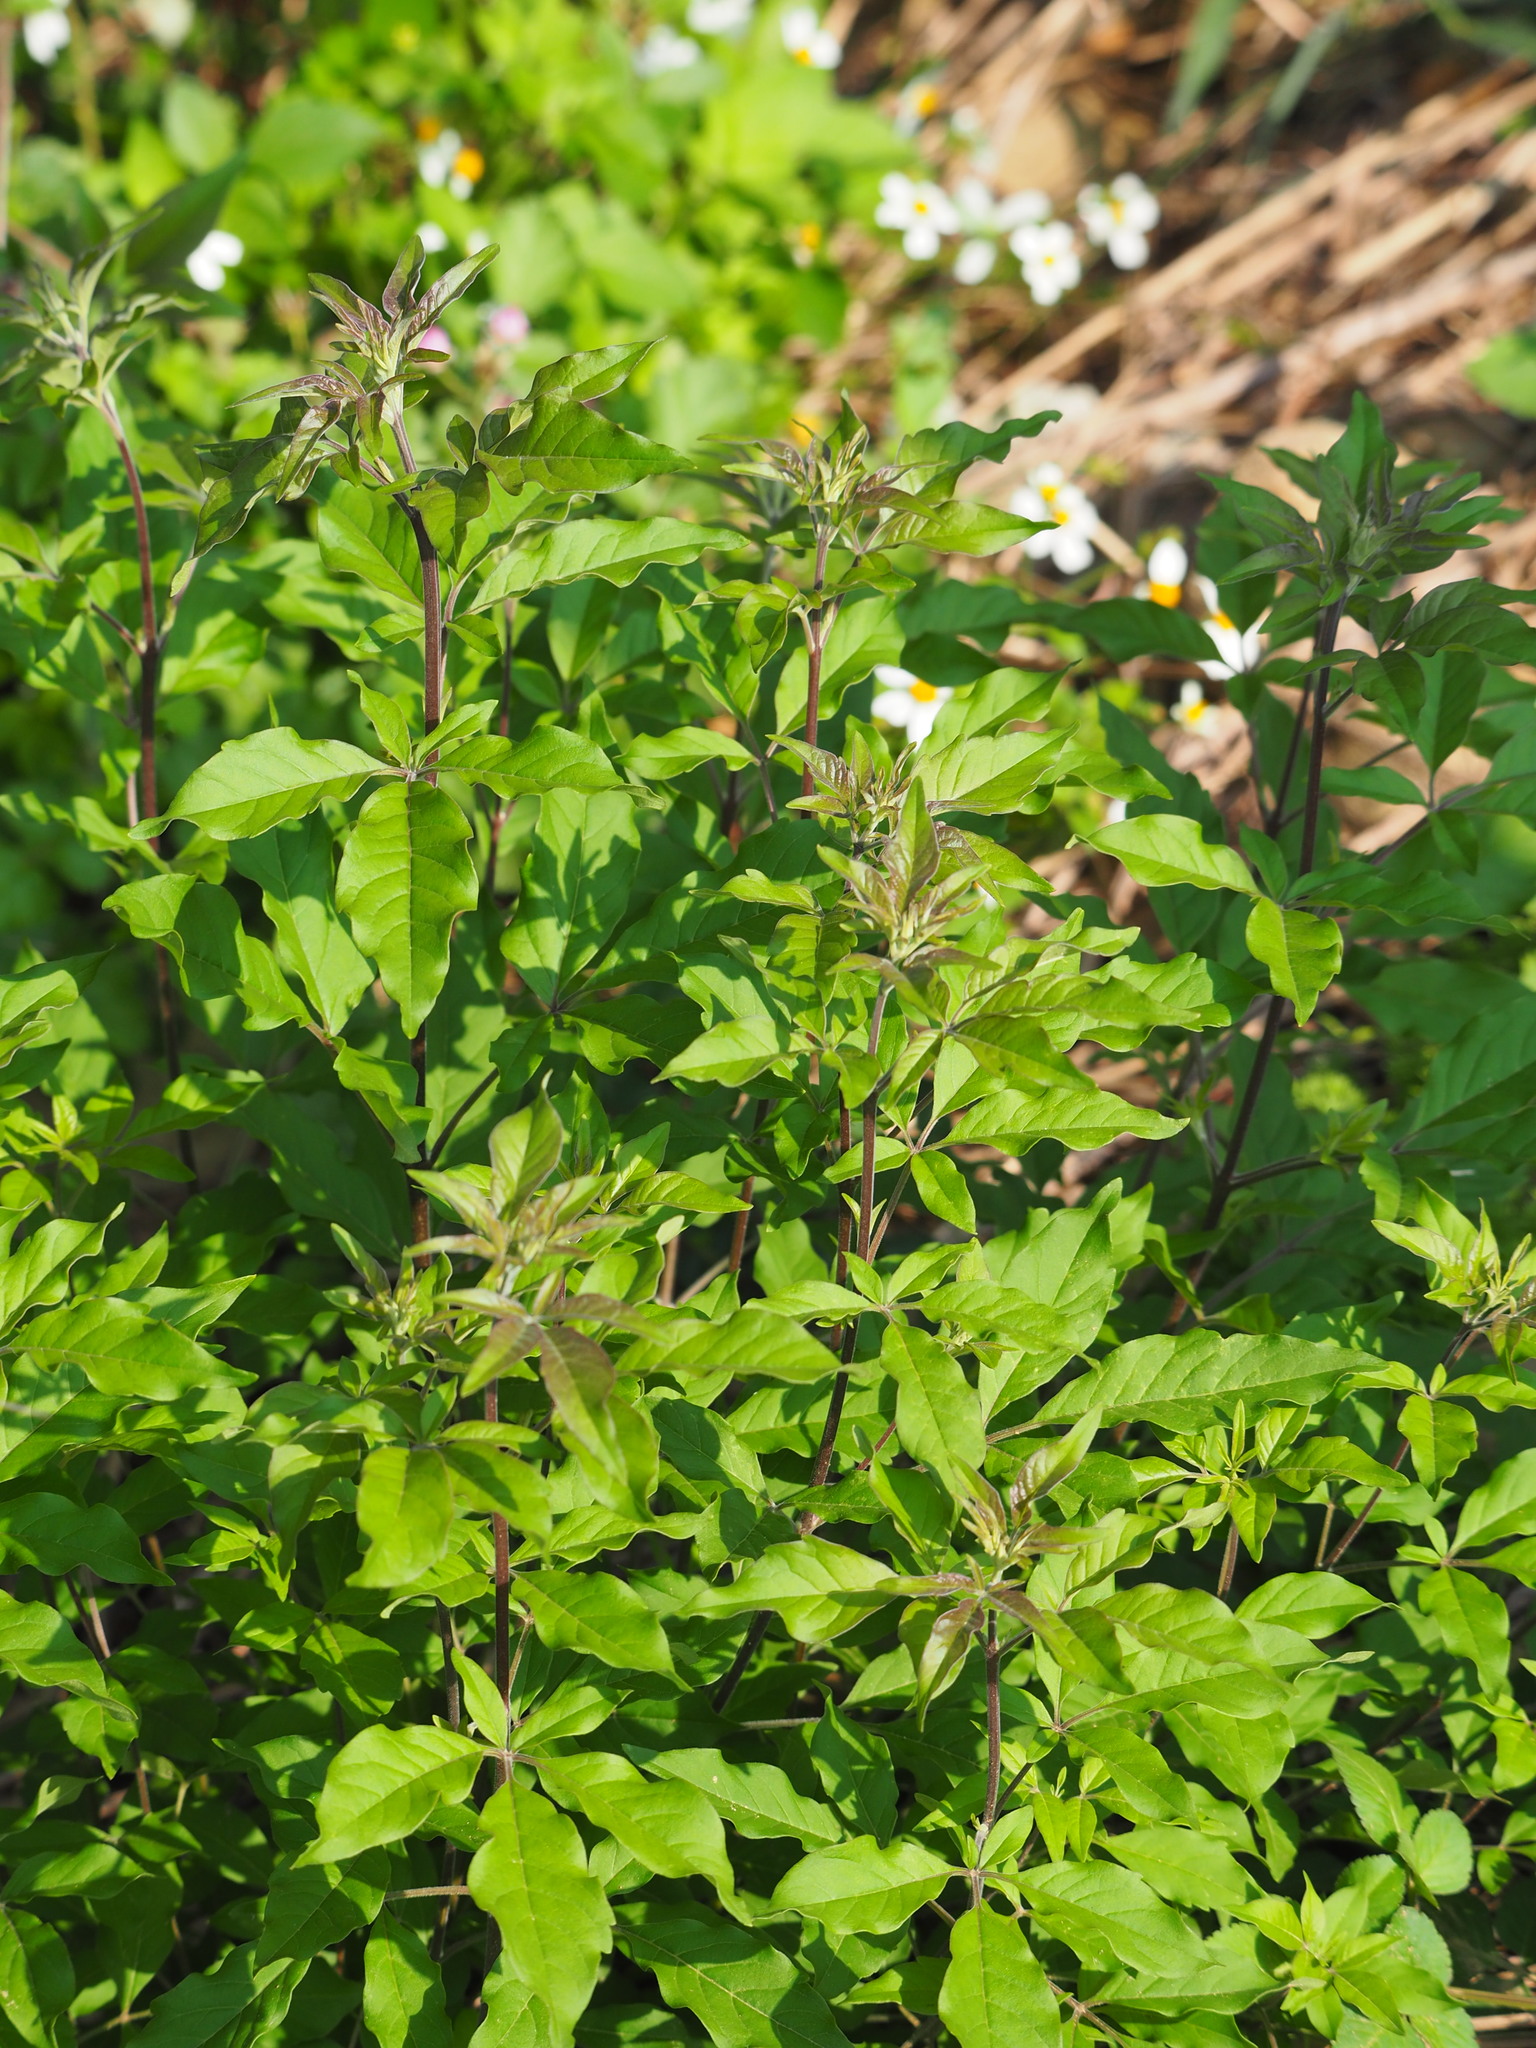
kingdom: Plantae
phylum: Tracheophyta
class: Magnoliopsida
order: Lamiales
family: Lamiaceae
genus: Vitex
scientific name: Vitex negundo
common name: Chinese chastetree
